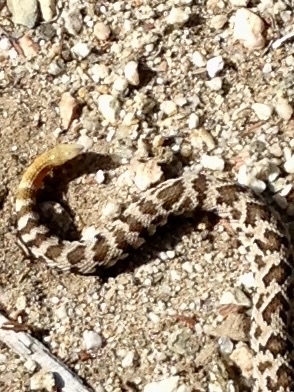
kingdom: Animalia
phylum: Chordata
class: Squamata
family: Viperidae
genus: Crotalus
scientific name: Crotalus oreganus
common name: Abyssus
